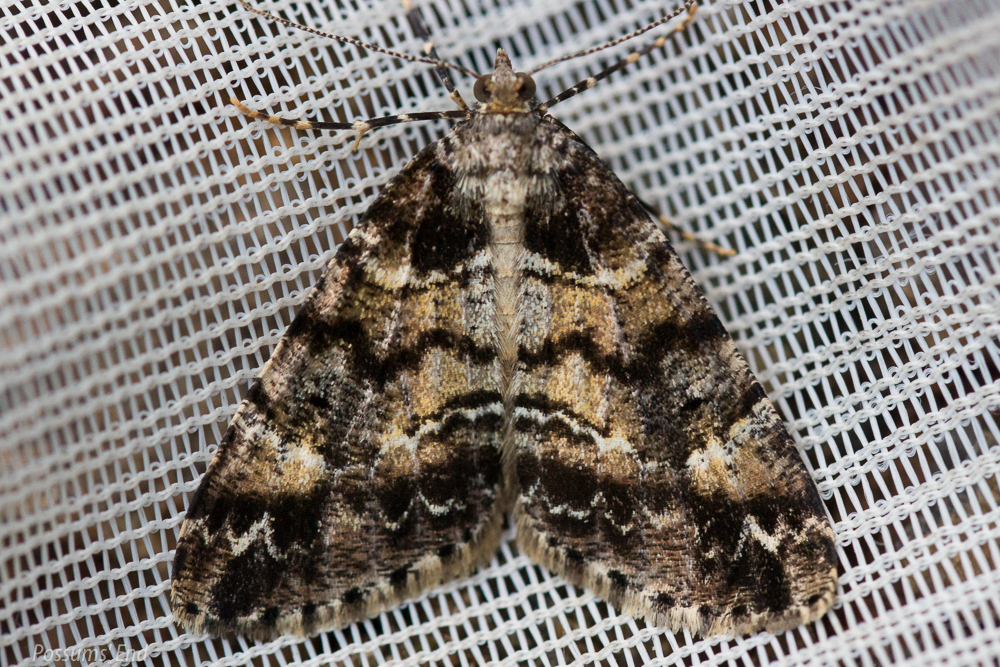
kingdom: Animalia
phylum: Arthropoda
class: Insecta
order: Lepidoptera
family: Geometridae
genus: Pseudocoremia
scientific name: Pseudocoremia productata
